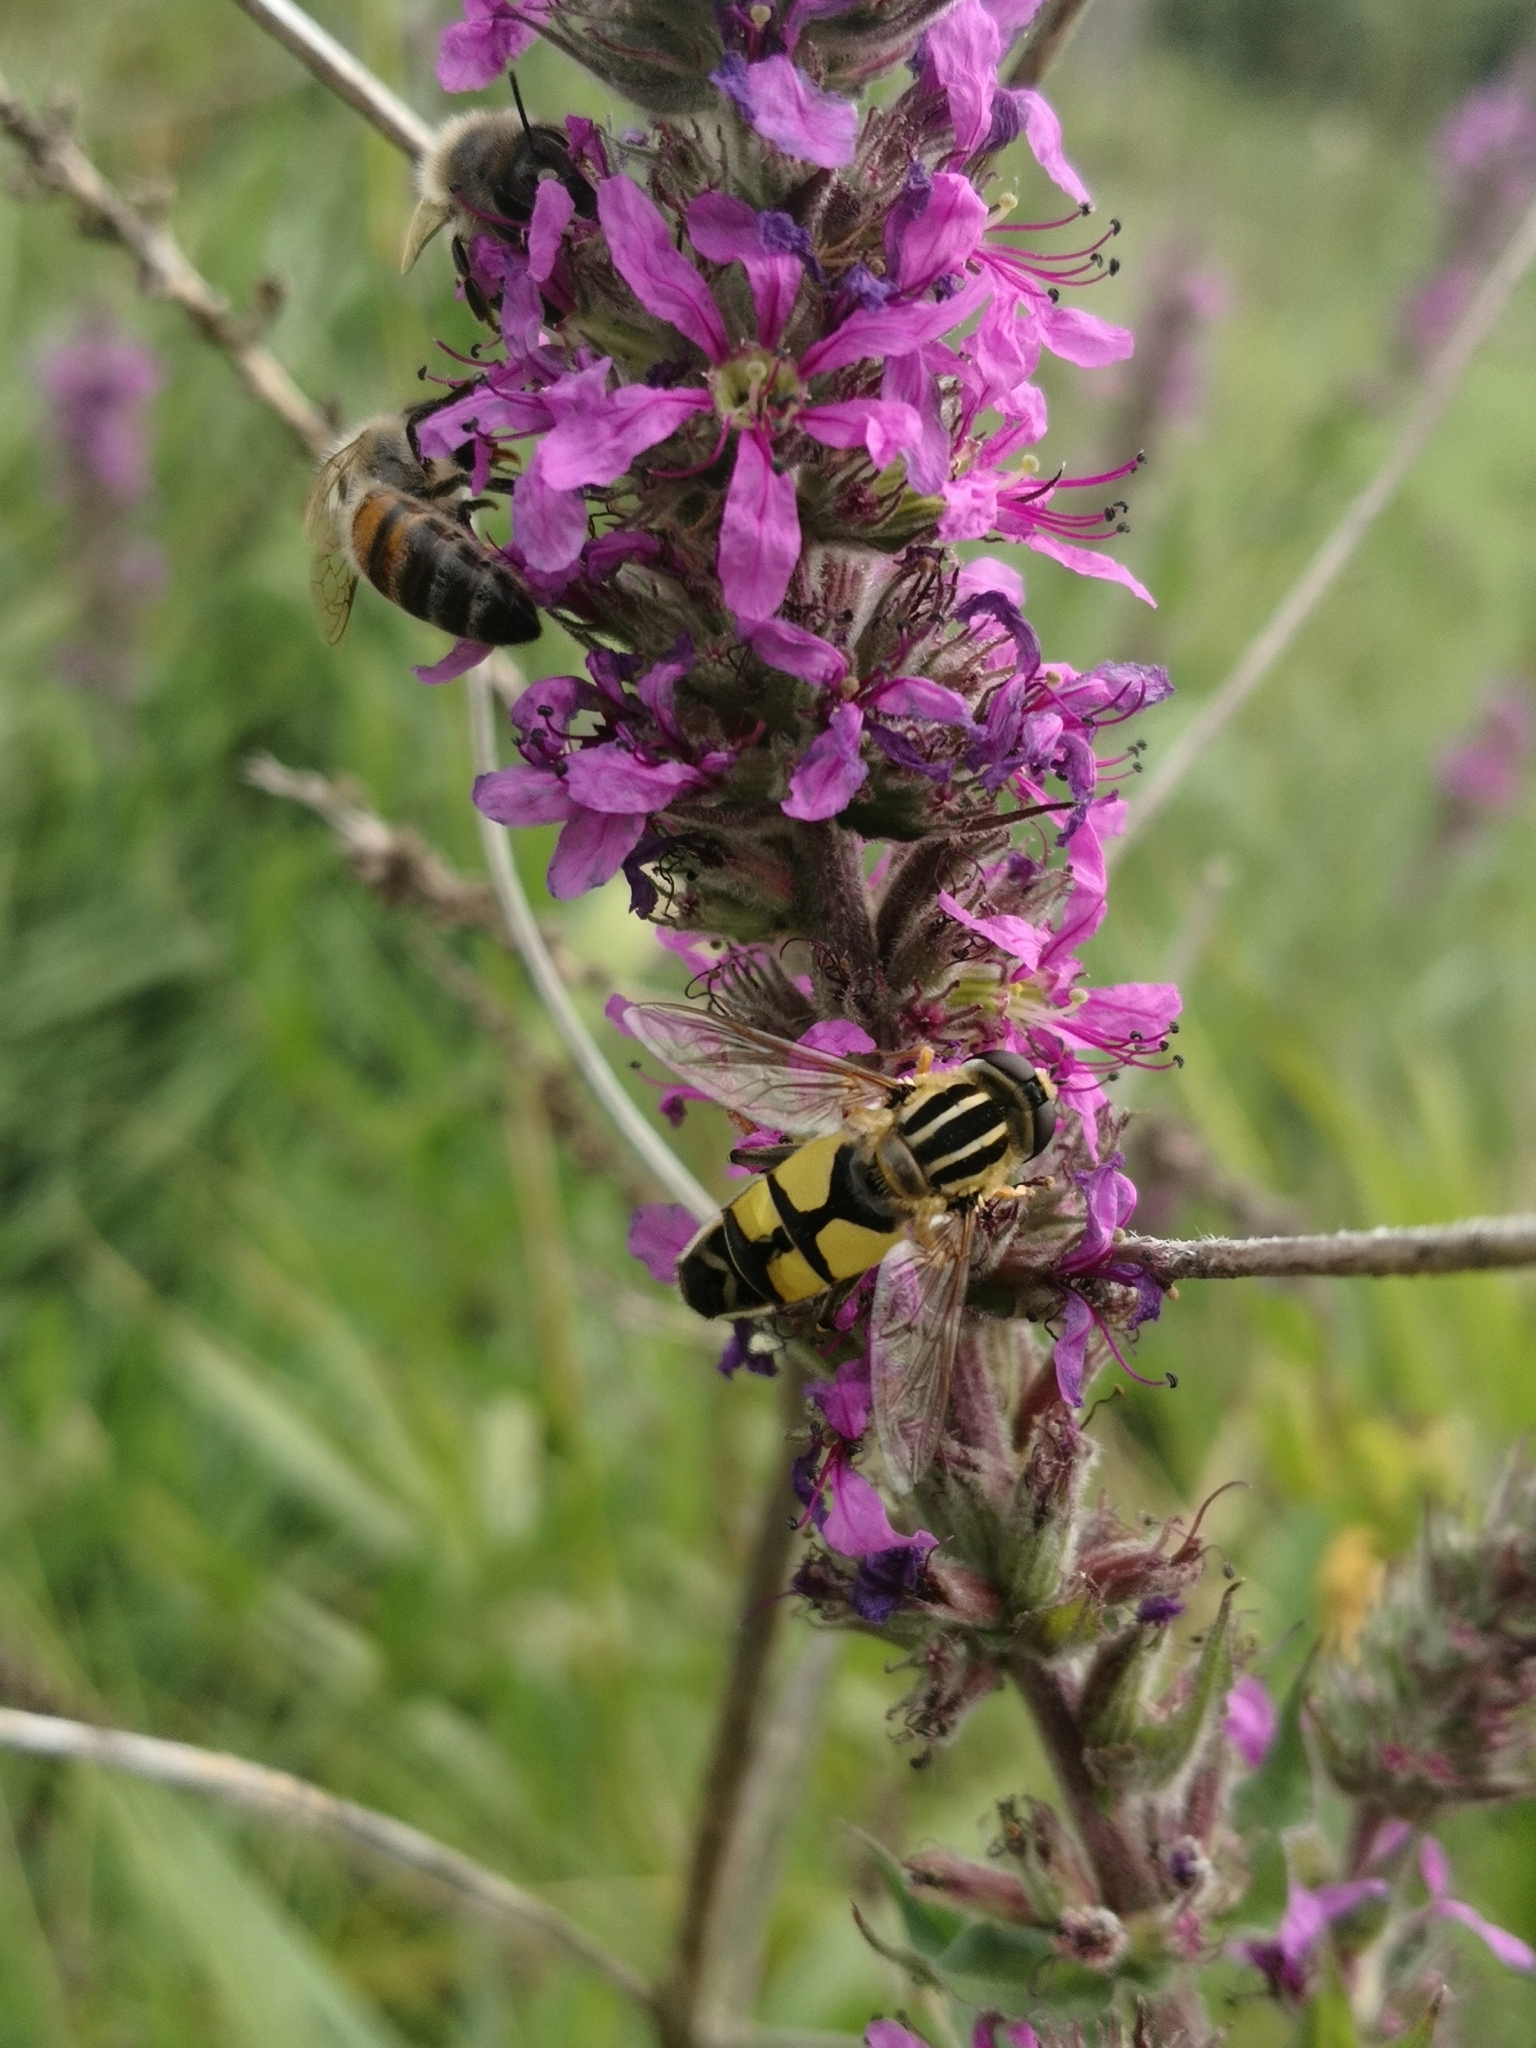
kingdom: Animalia
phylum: Arthropoda
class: Insecta
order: Diptera
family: Syrphidae
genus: Helophilus
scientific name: Helophilus trivittatus
